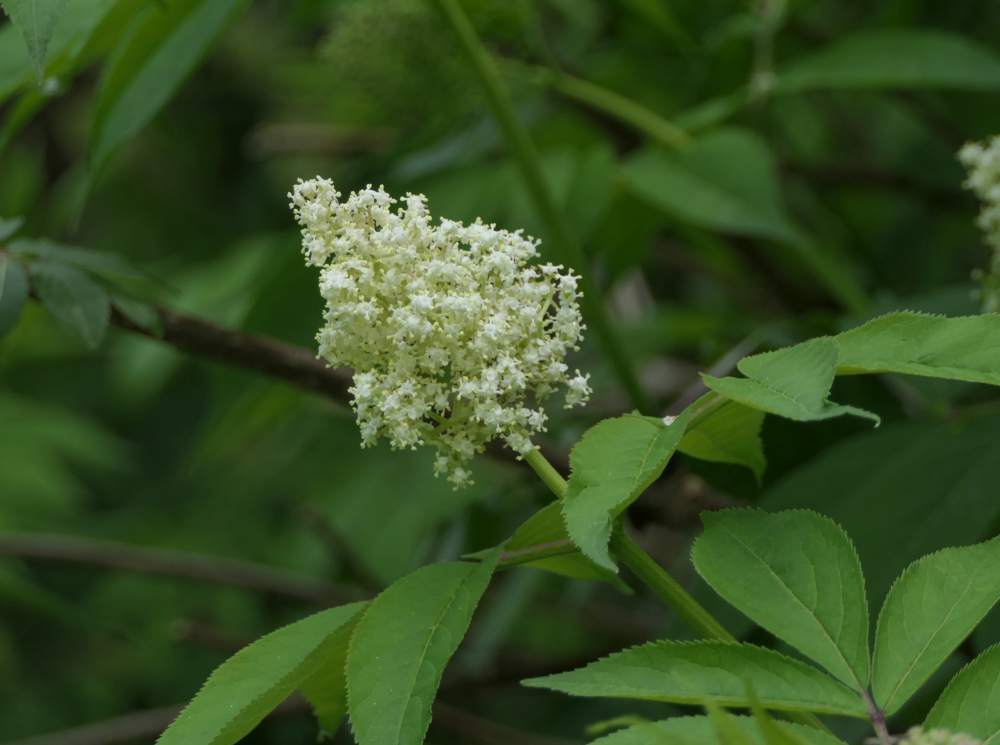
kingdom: Plantae
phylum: Tracheophyta
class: Magnoliopsida
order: Dipsacales
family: Viburnaceae
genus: Sambucus
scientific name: Sambucus racemosa
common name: Red-berried elder
